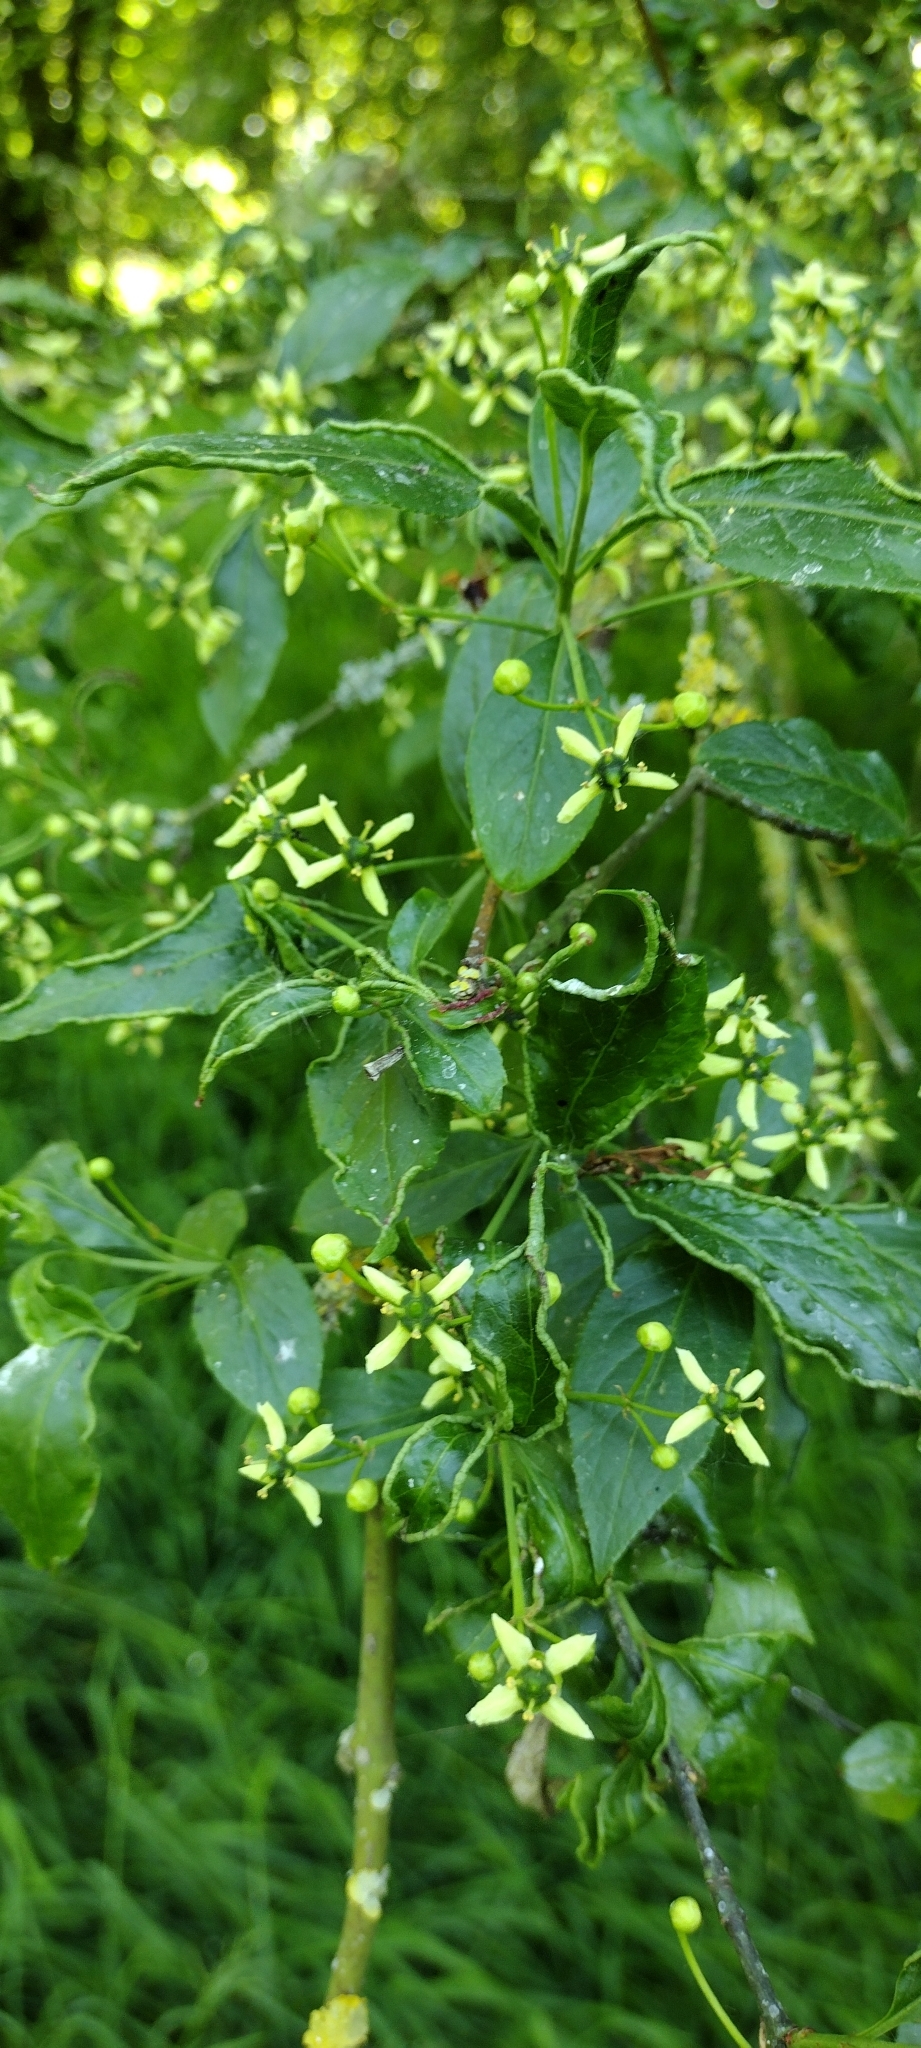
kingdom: Plantae
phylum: Tracheophyta
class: Magnoliopsida
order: Celastrales
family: Celastraceae
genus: Euonymus
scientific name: Euonymus europaeus
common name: Spindle
